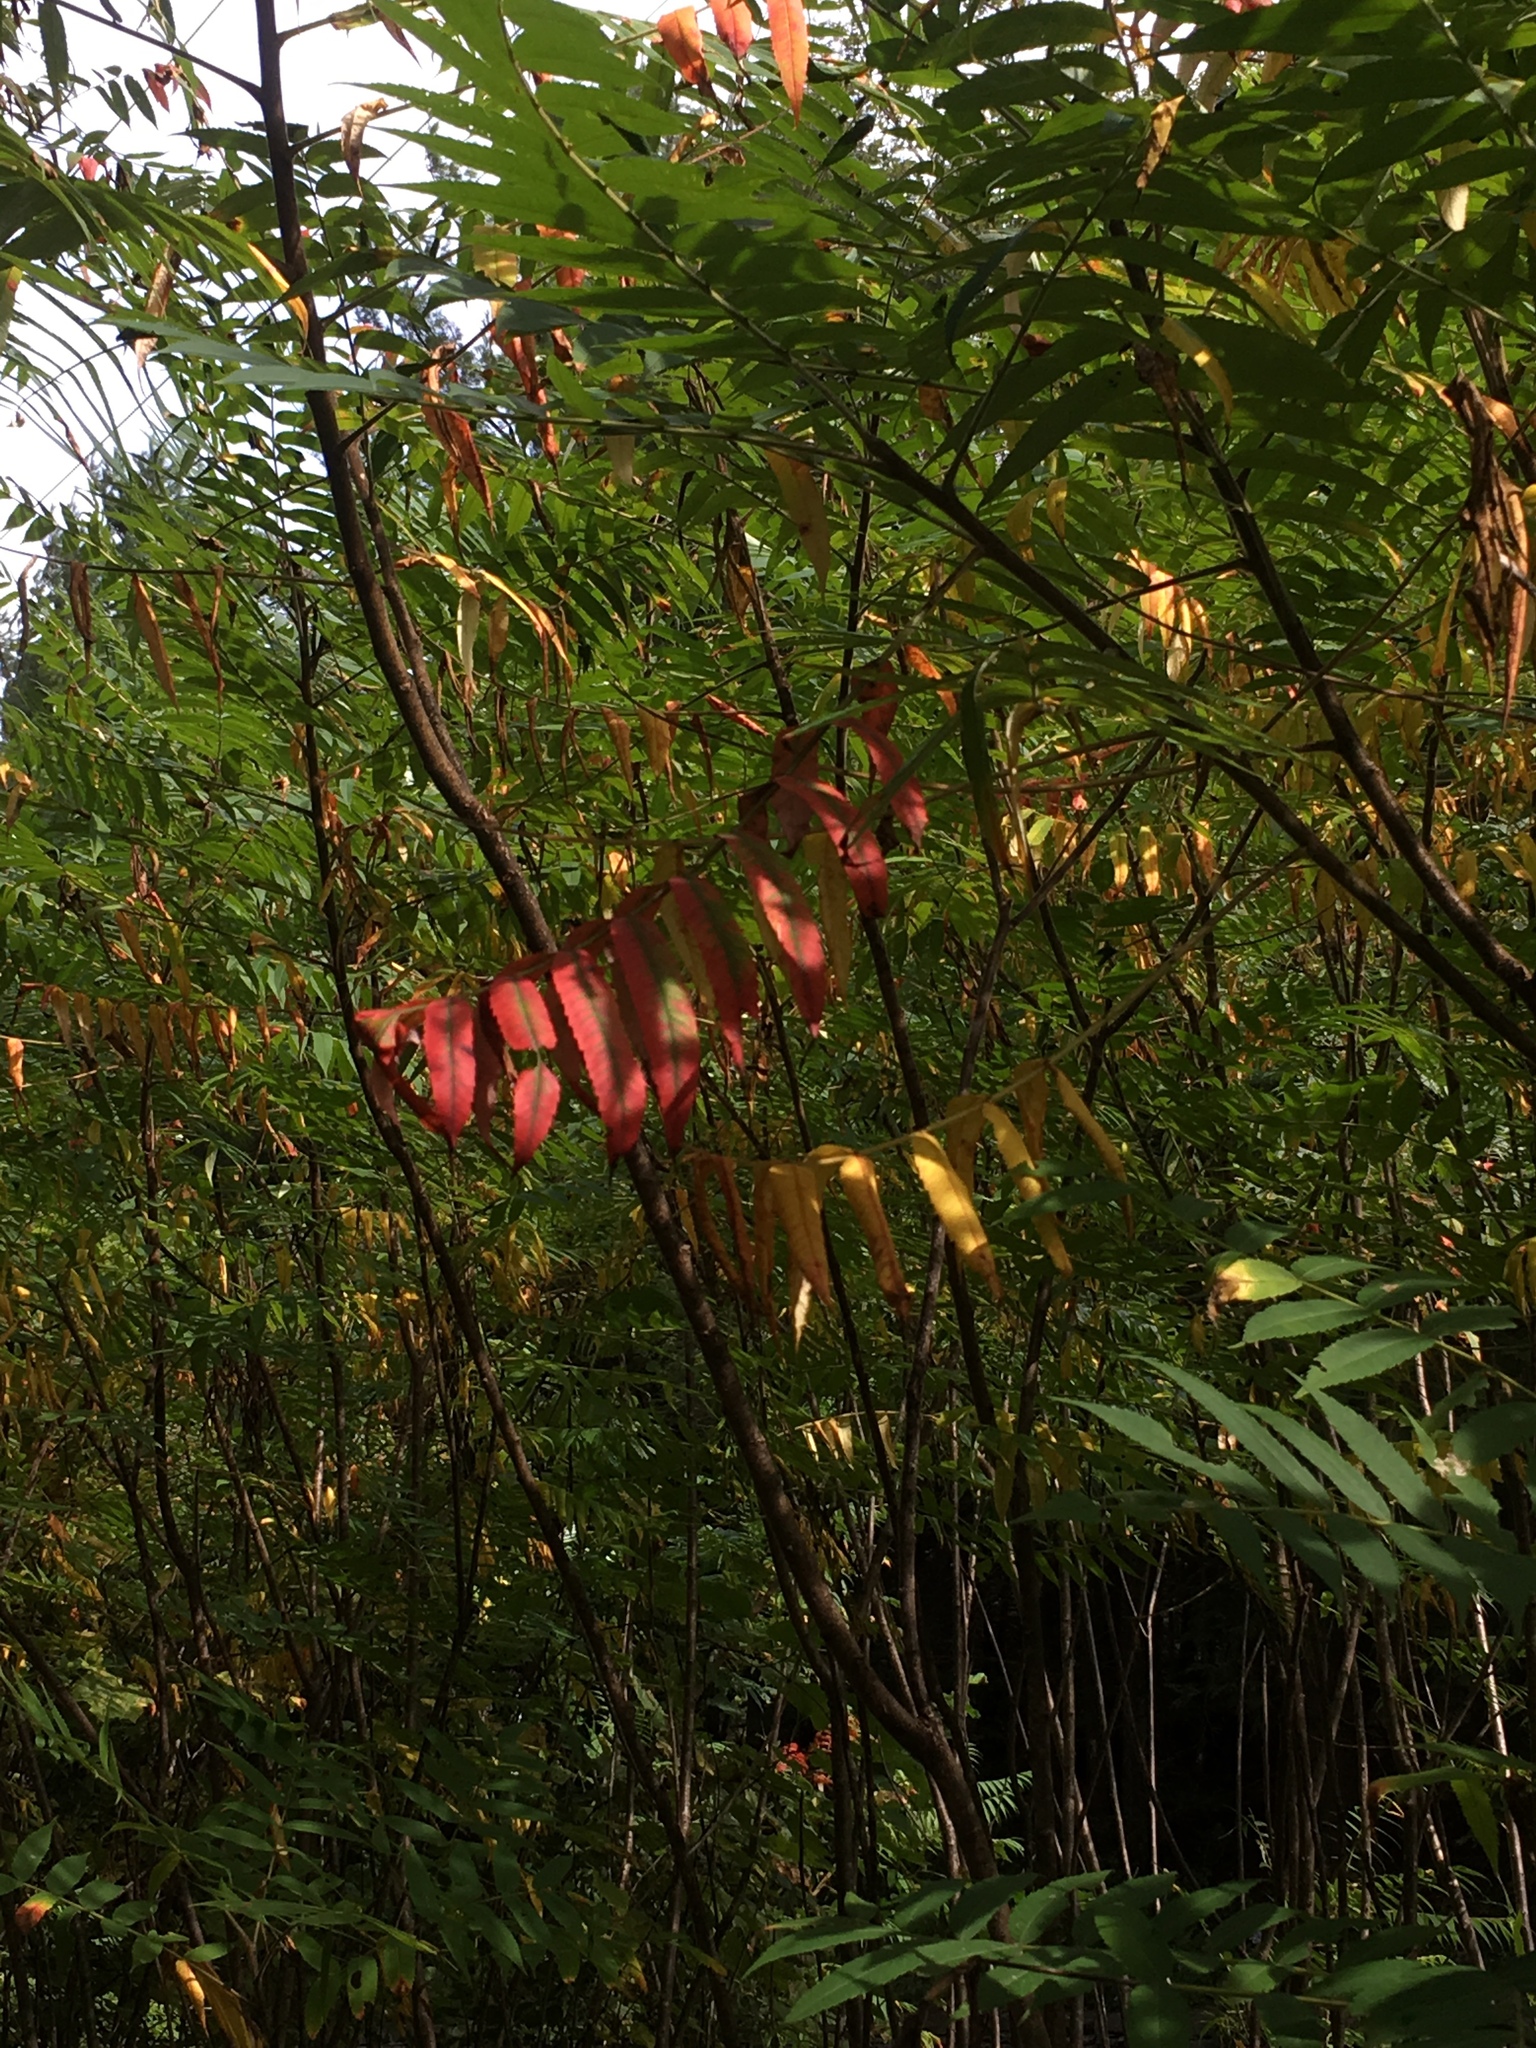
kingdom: Plantae
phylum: Tracheophyta
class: Magnoliopsida
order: Sapindales
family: Anacardiaceae
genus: Rhus
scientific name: Rhus typhina
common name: Staghorn sumac
